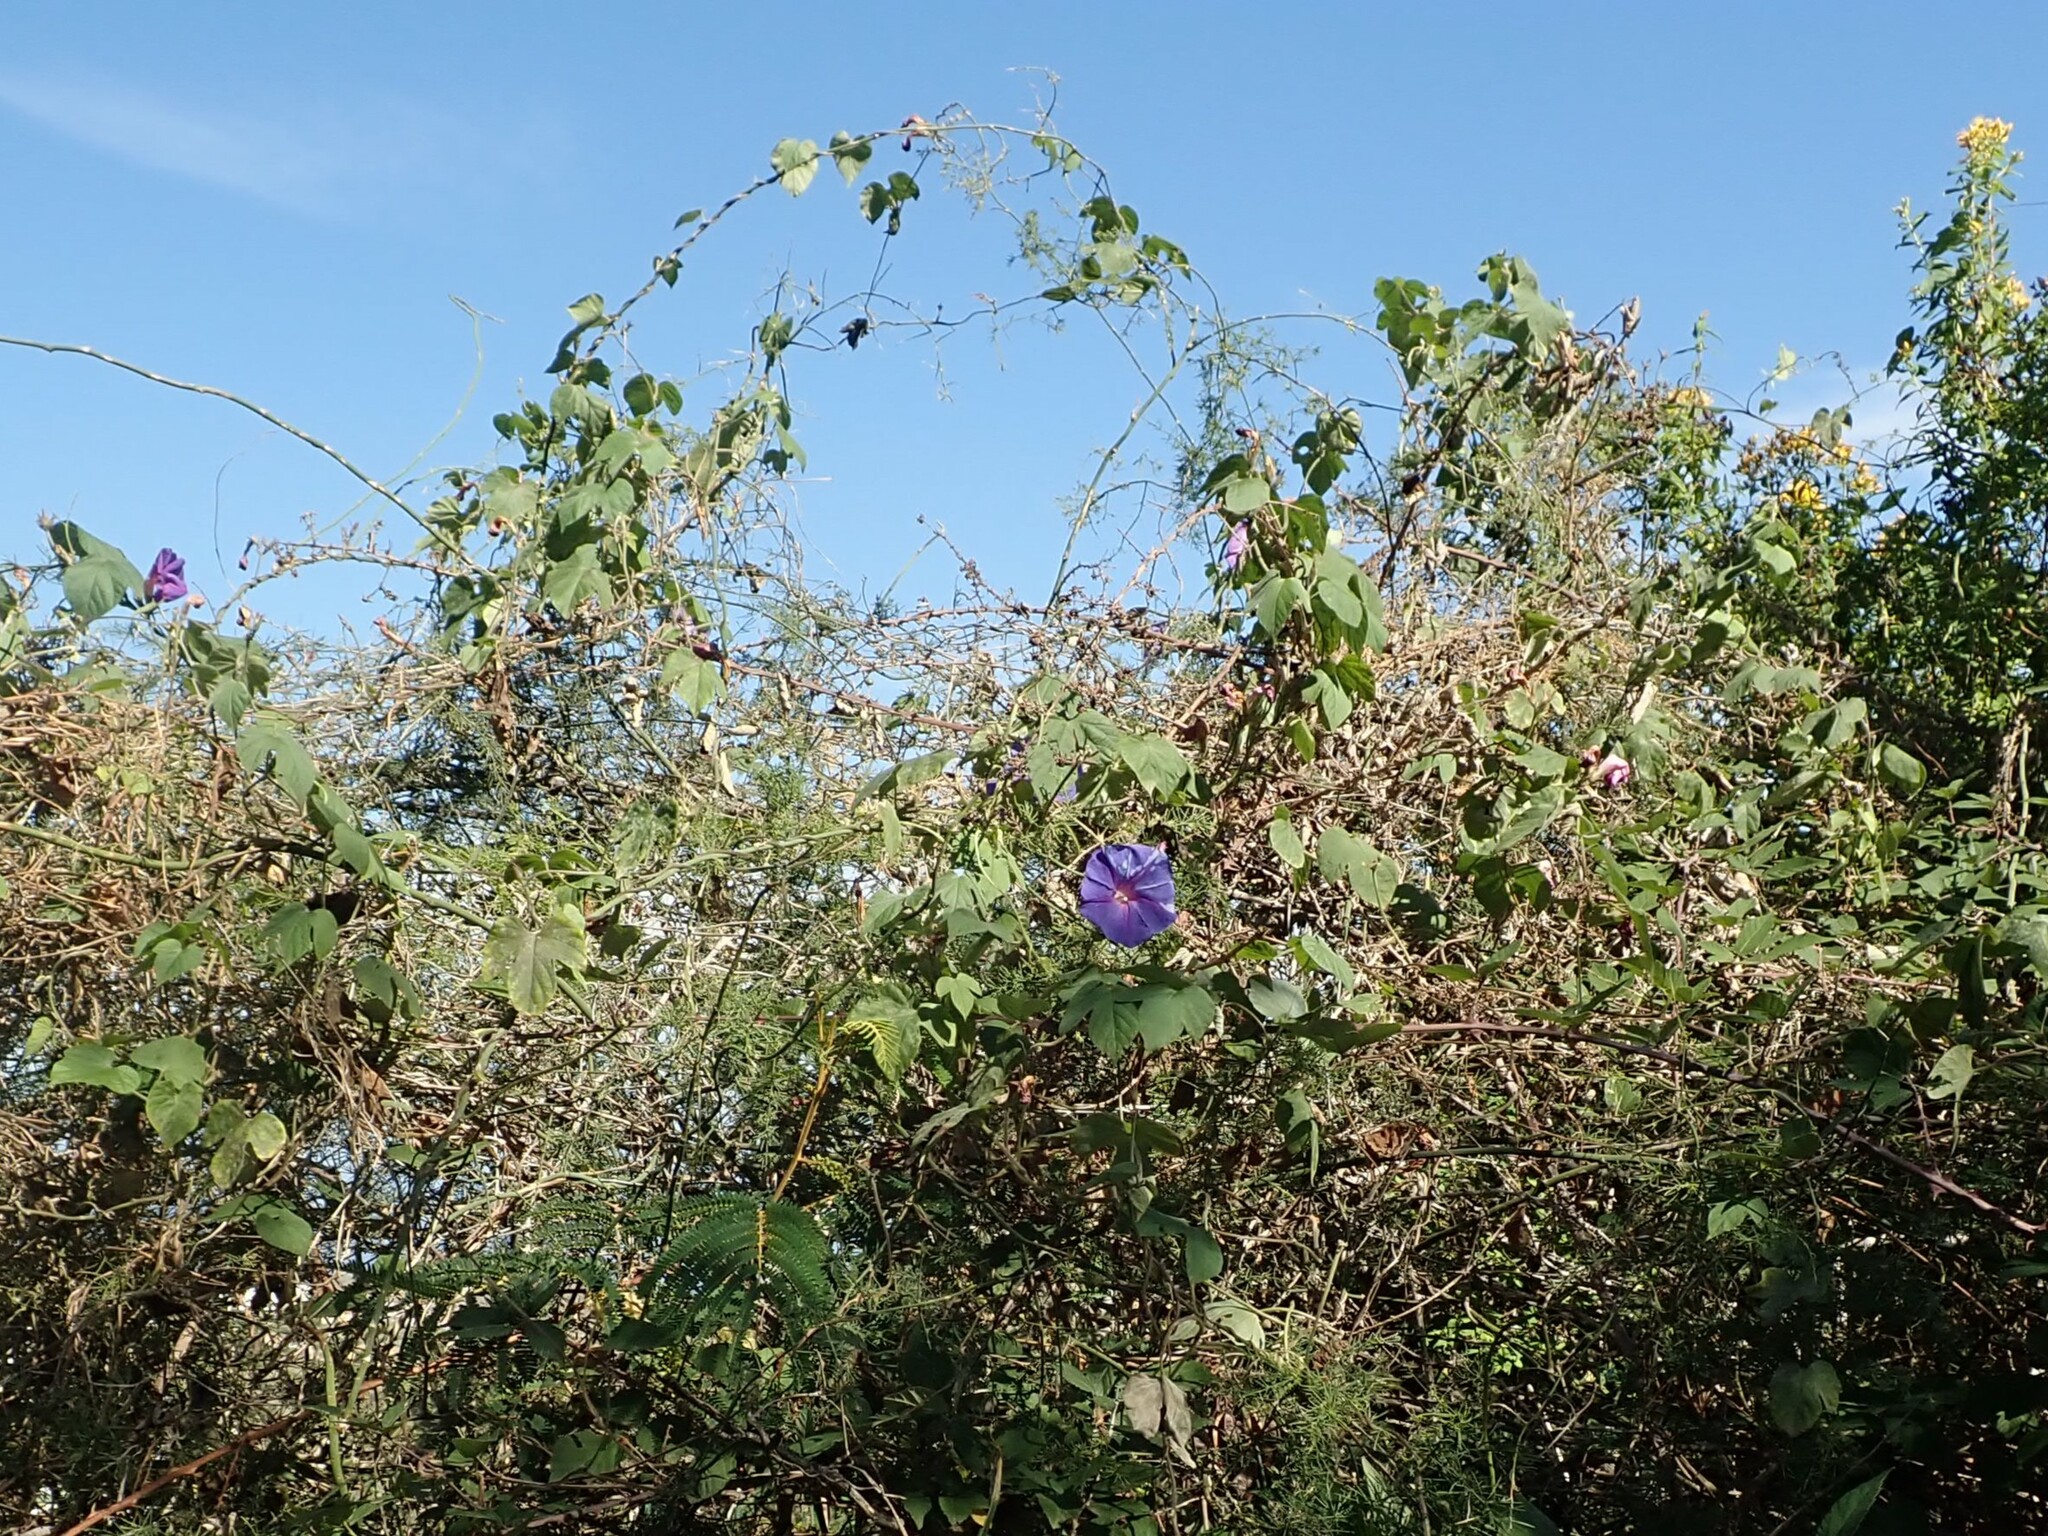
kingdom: Plantae
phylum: Tracheophyta
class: Magnoliopsida
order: Solanales
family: Convolvulaceae
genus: Ipomoea
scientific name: Ipomoea indica
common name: Blue dawnflower
